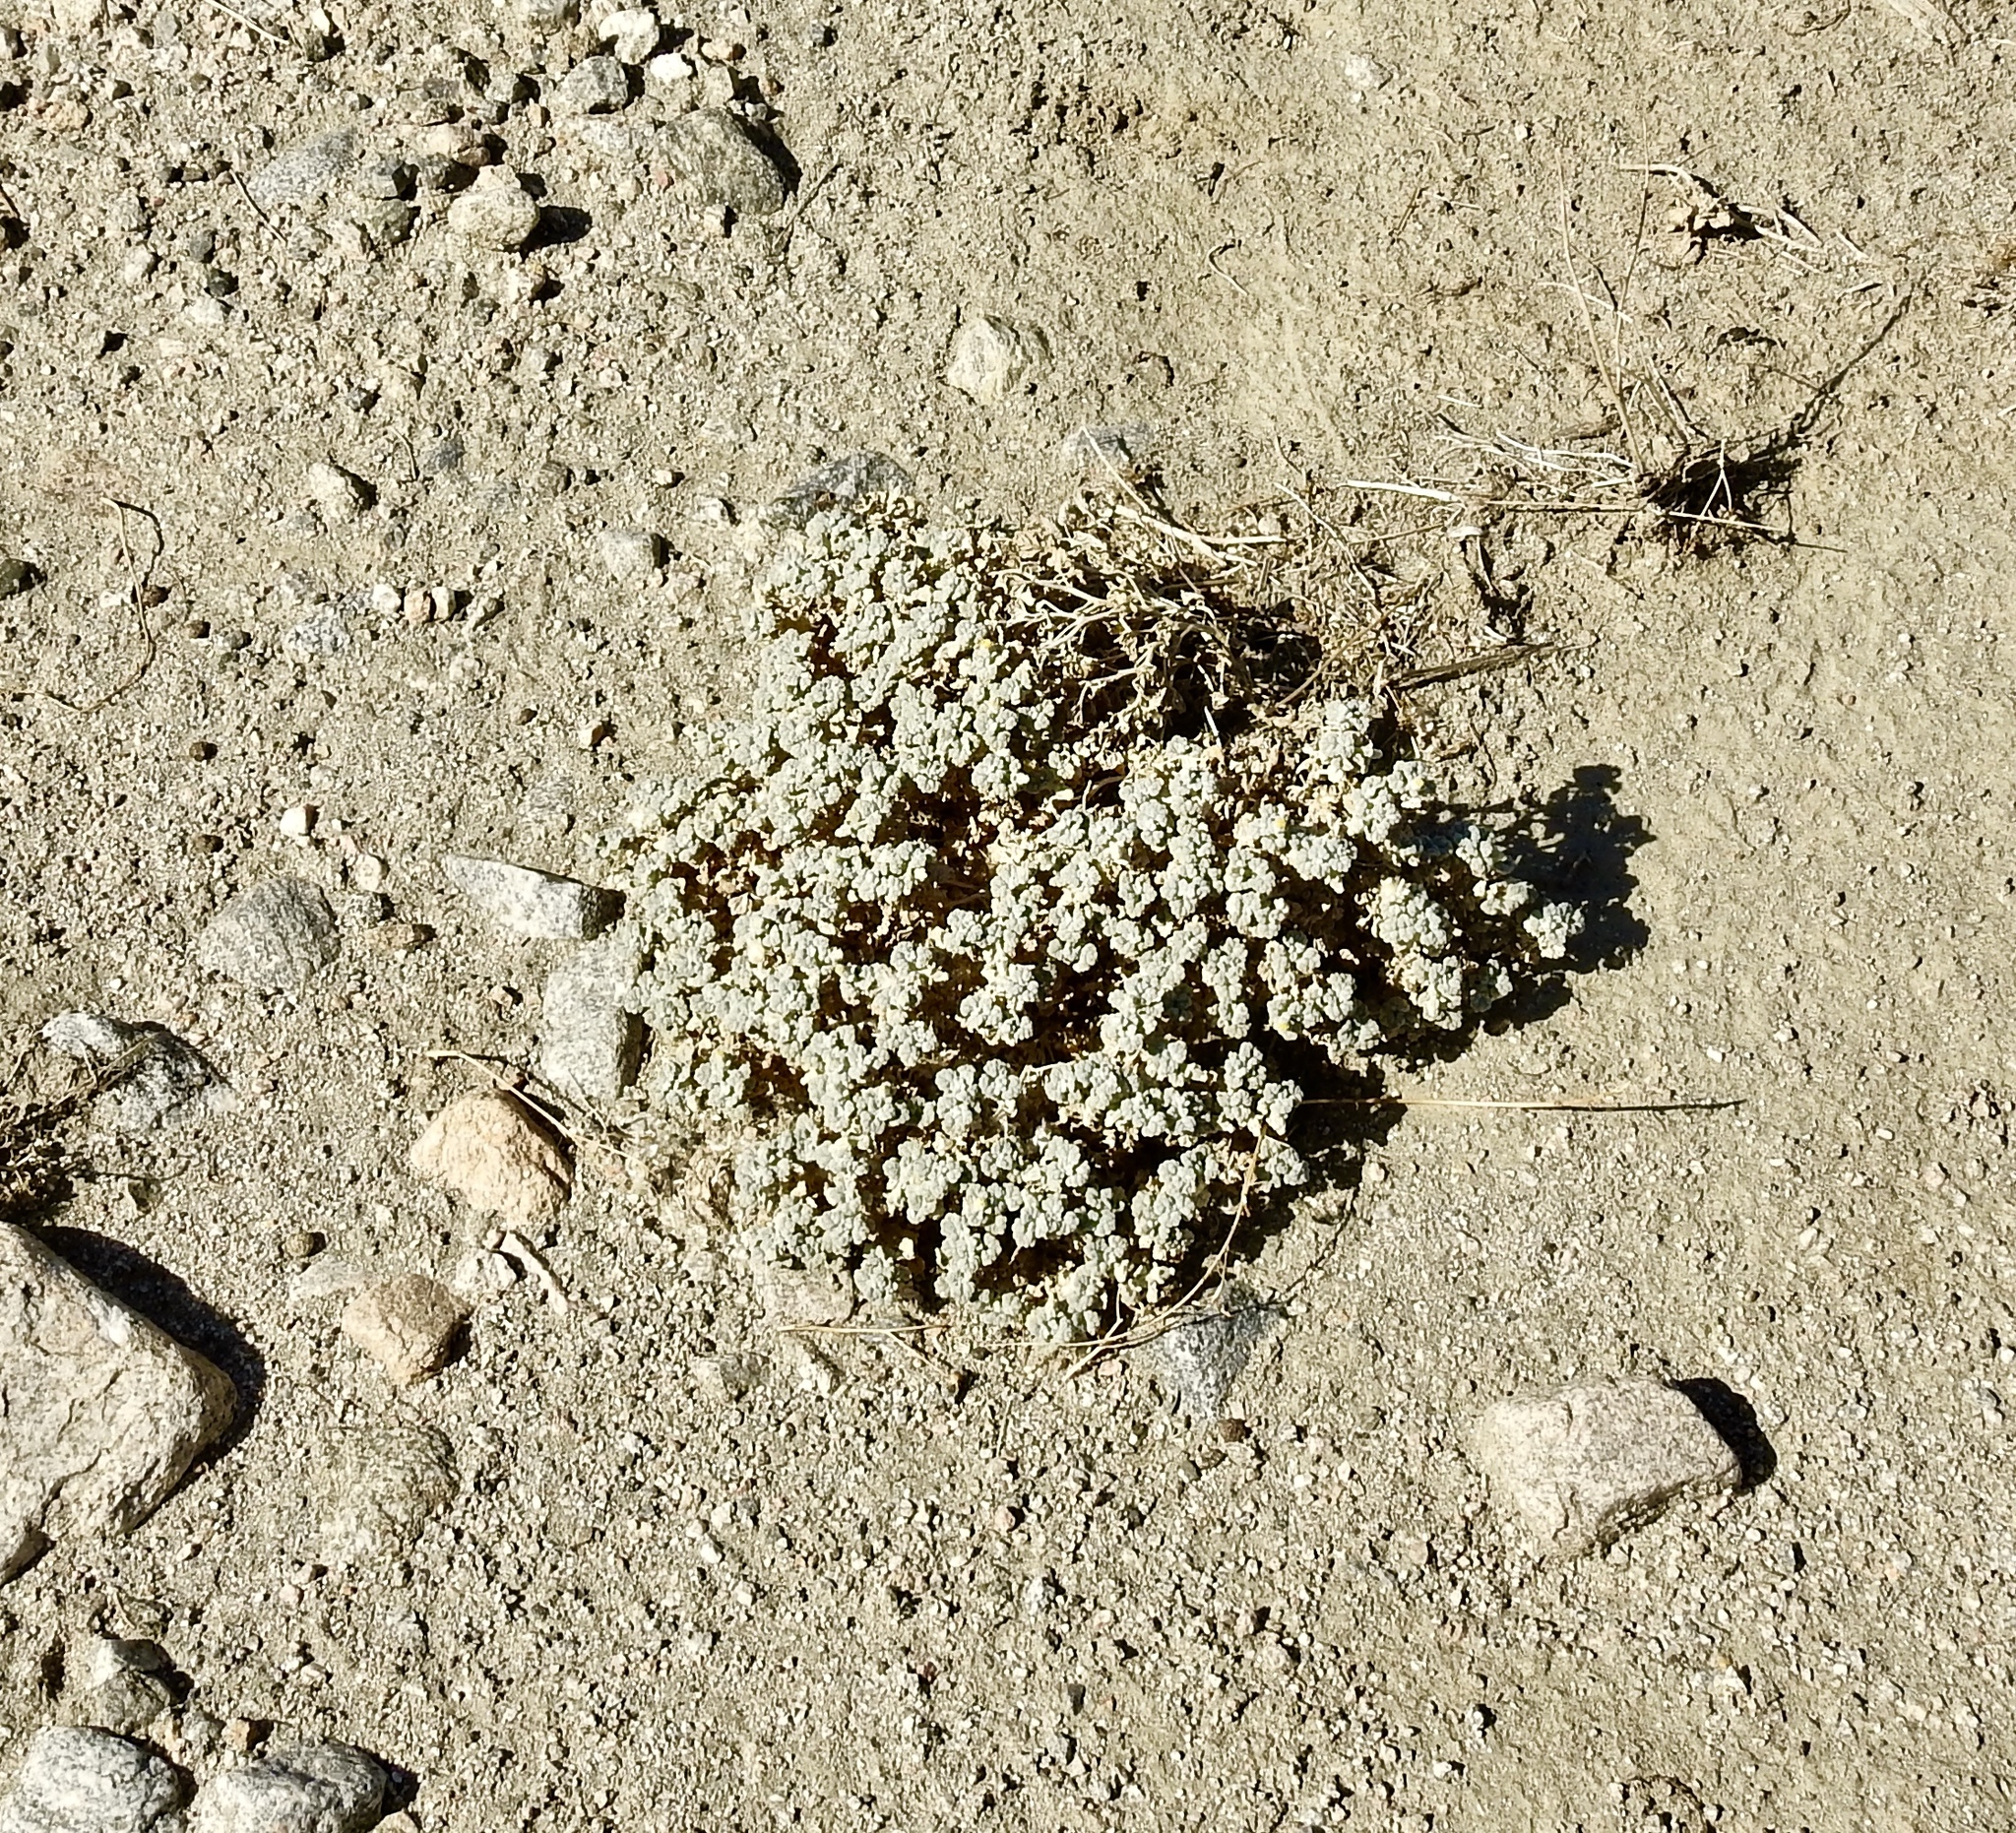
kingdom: Plantae
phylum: Tracheophyta
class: Magnoliopsida
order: Asterales
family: Asteraceae
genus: Psathyrotes
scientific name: Psathyrotes ramosissima
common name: Turtleback
